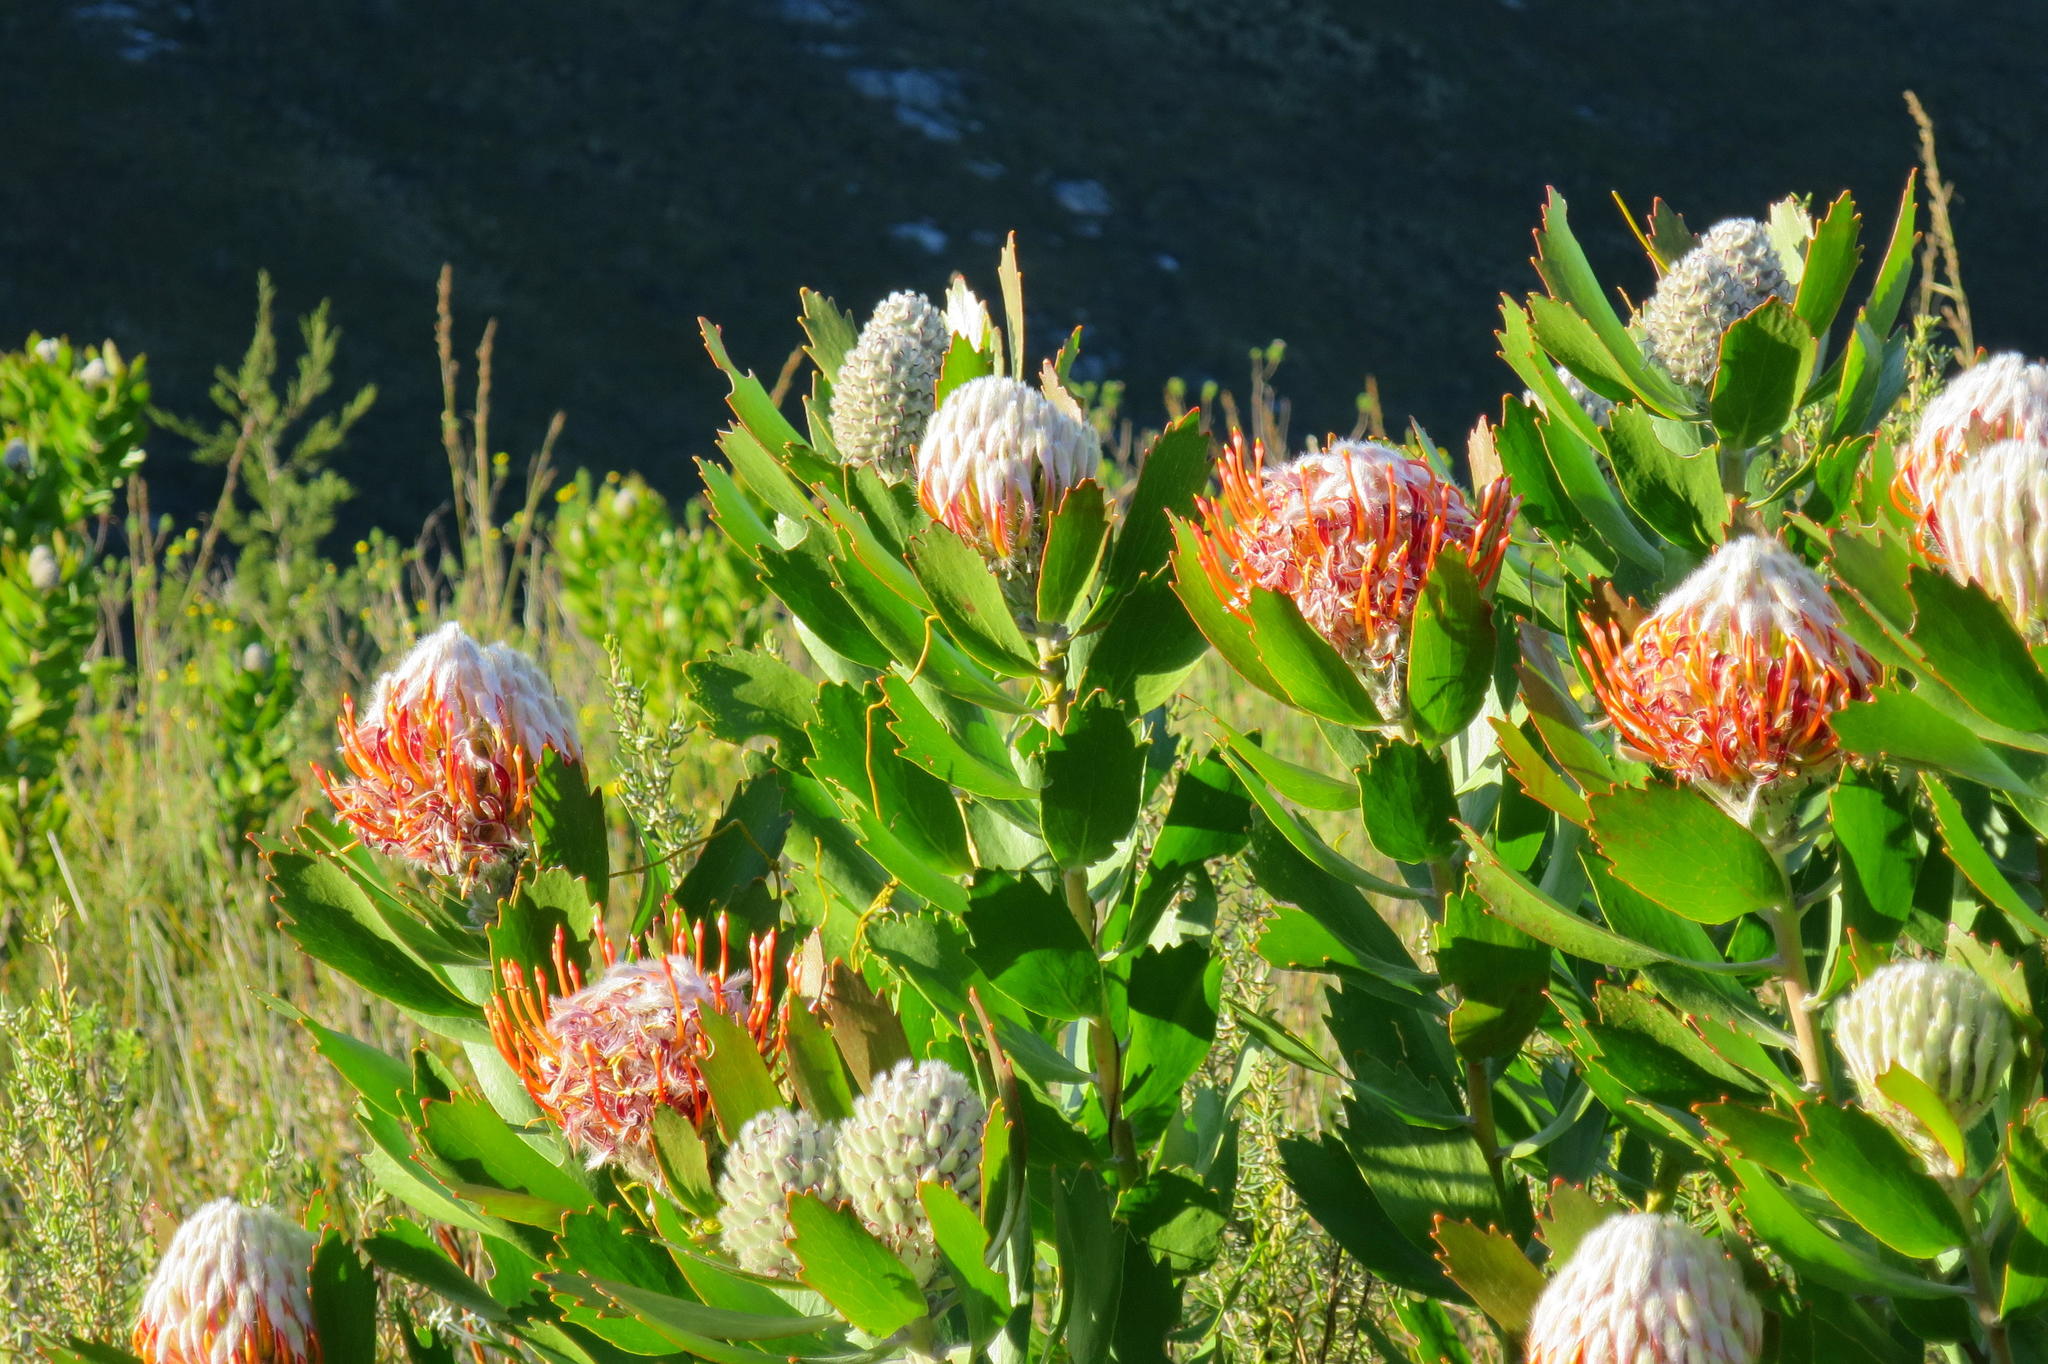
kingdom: Plantae
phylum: Tracheophyta
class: Magnoliopsida
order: Proteales
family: Proteaceae
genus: Leucospermum
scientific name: Leucospermum glabrum
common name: Outeniqua pincushion
